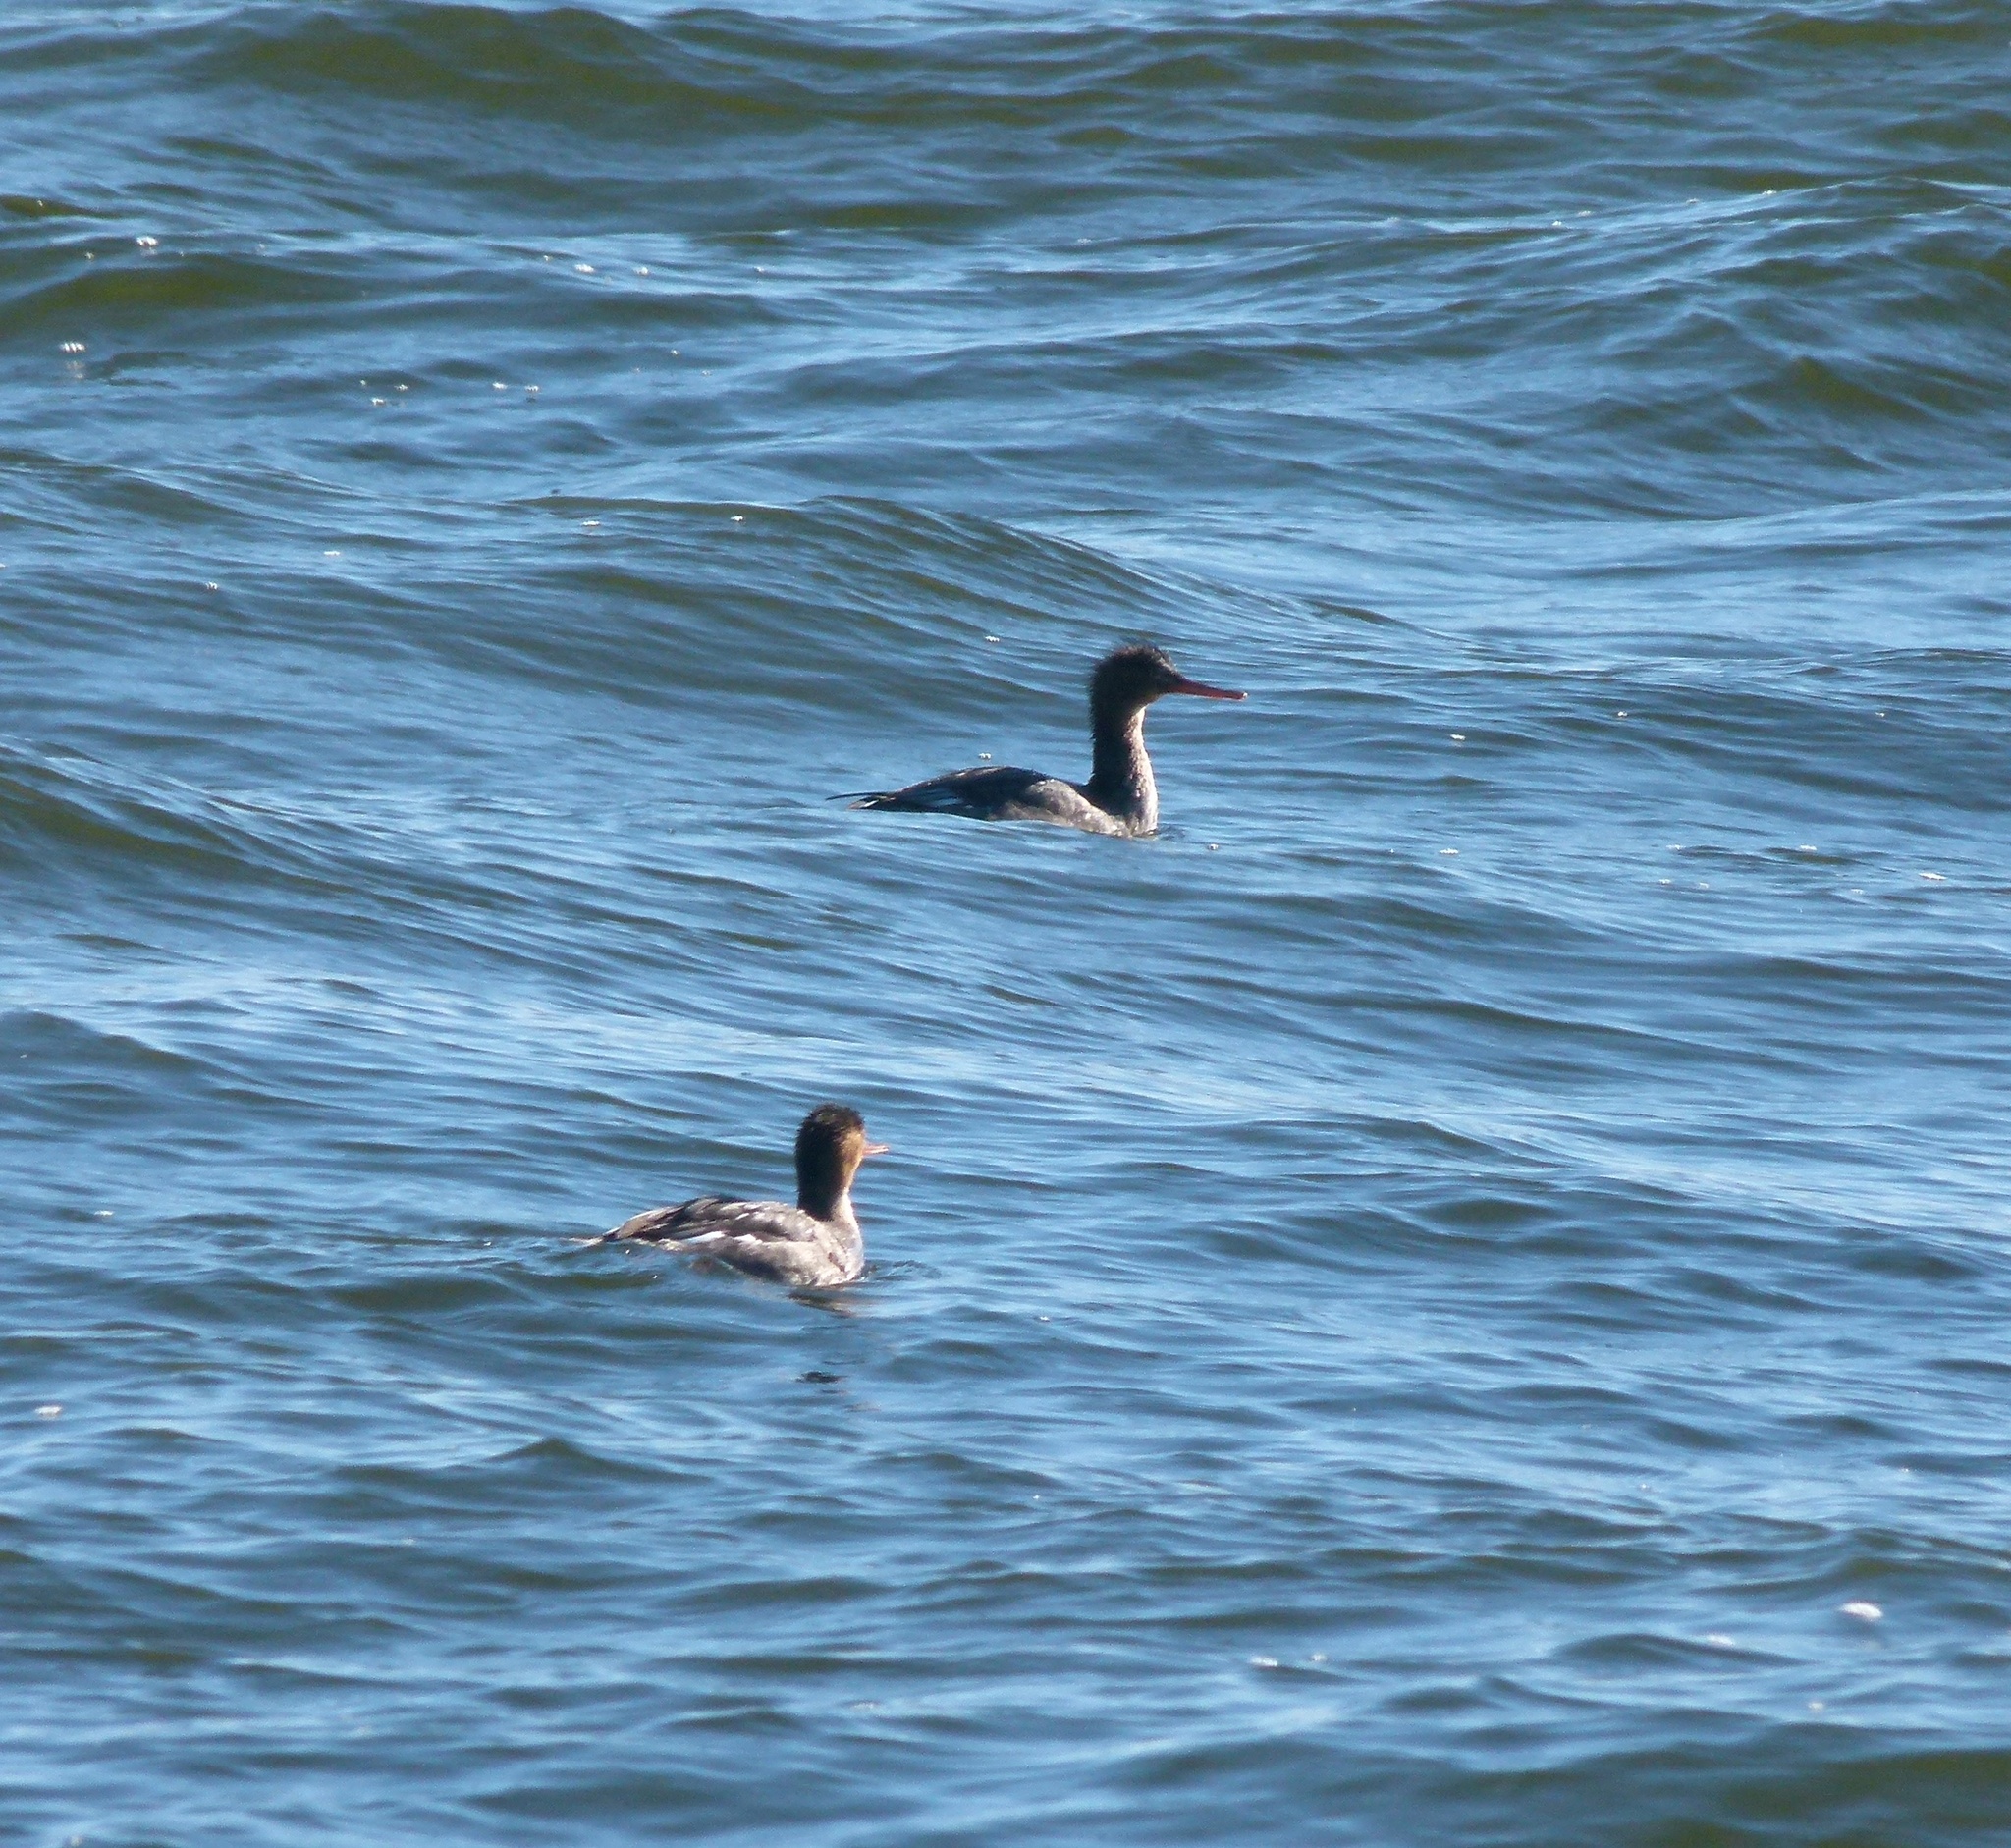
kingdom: Animalia
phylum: Chordata
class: Aves
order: Anseriformes
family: Anatidae
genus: Mergus
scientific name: Mergus serrator
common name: Red-breasted merganser
